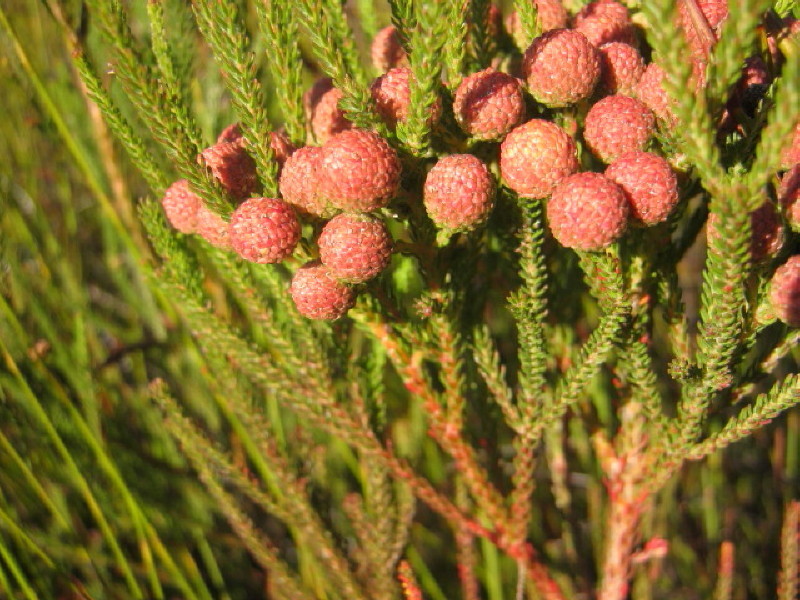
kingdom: Plantae
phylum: Tracheophyta
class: Magnoliopsida
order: Bruniales
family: Bruniaceae
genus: Berzelia
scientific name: Berzelia intermedia
